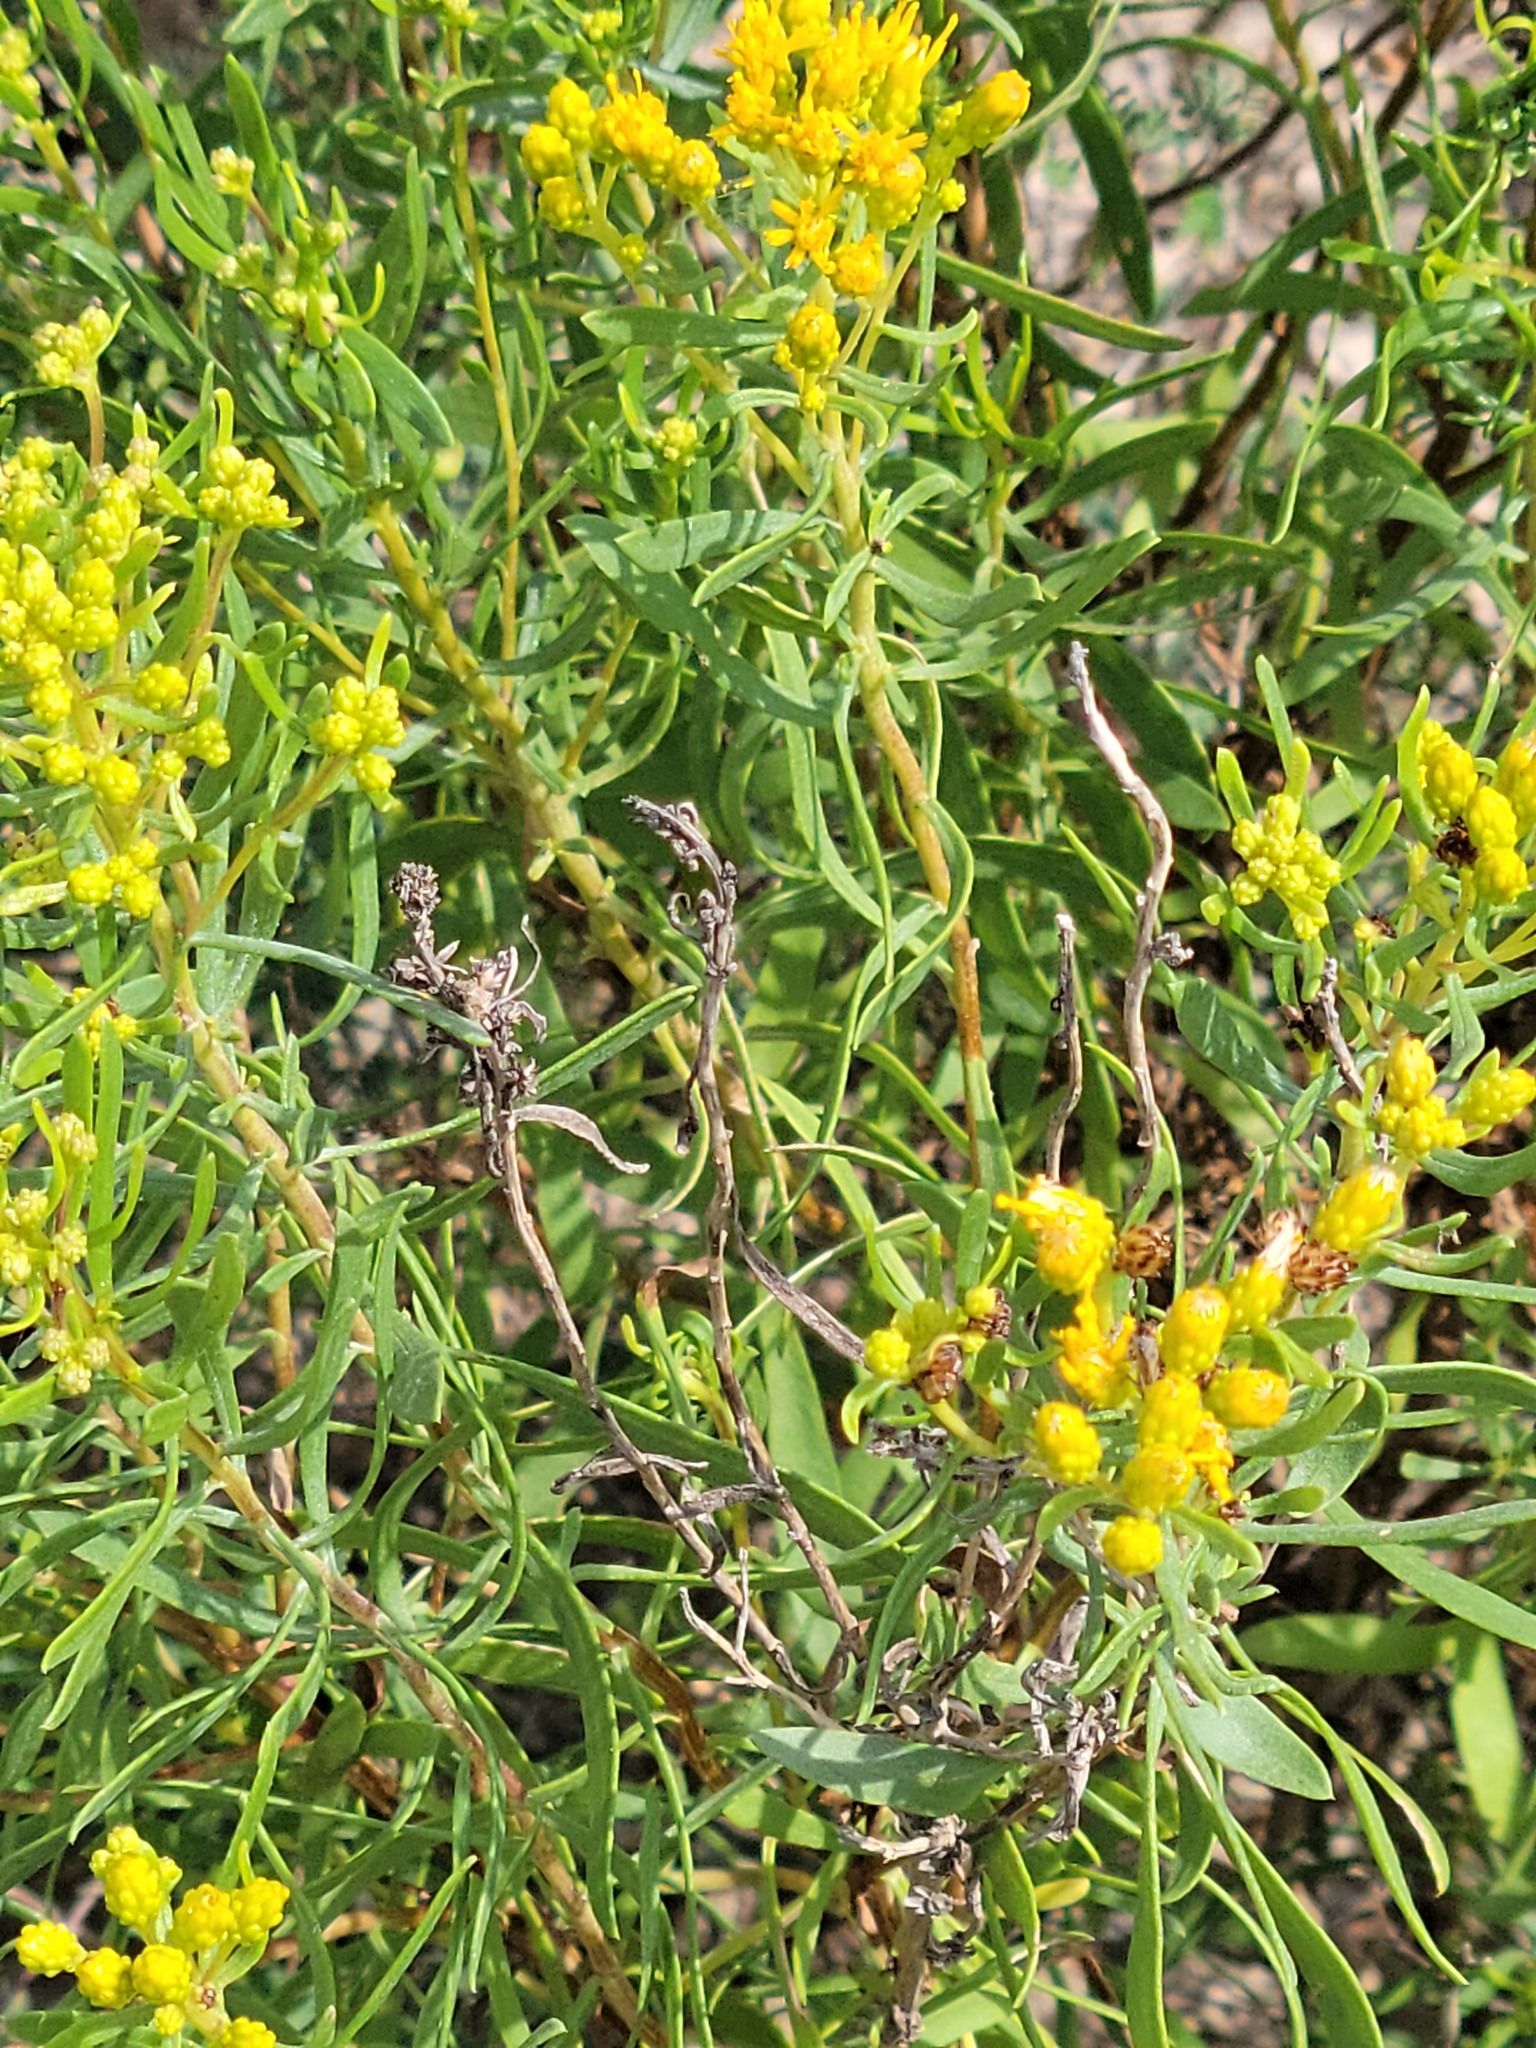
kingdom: Plantae
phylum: Tracheophyta
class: Magnoliopsida
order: Asterales
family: Asteraceae
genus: Isocoma
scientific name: Isocoma drummondii
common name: Drummond's jimmyweed
